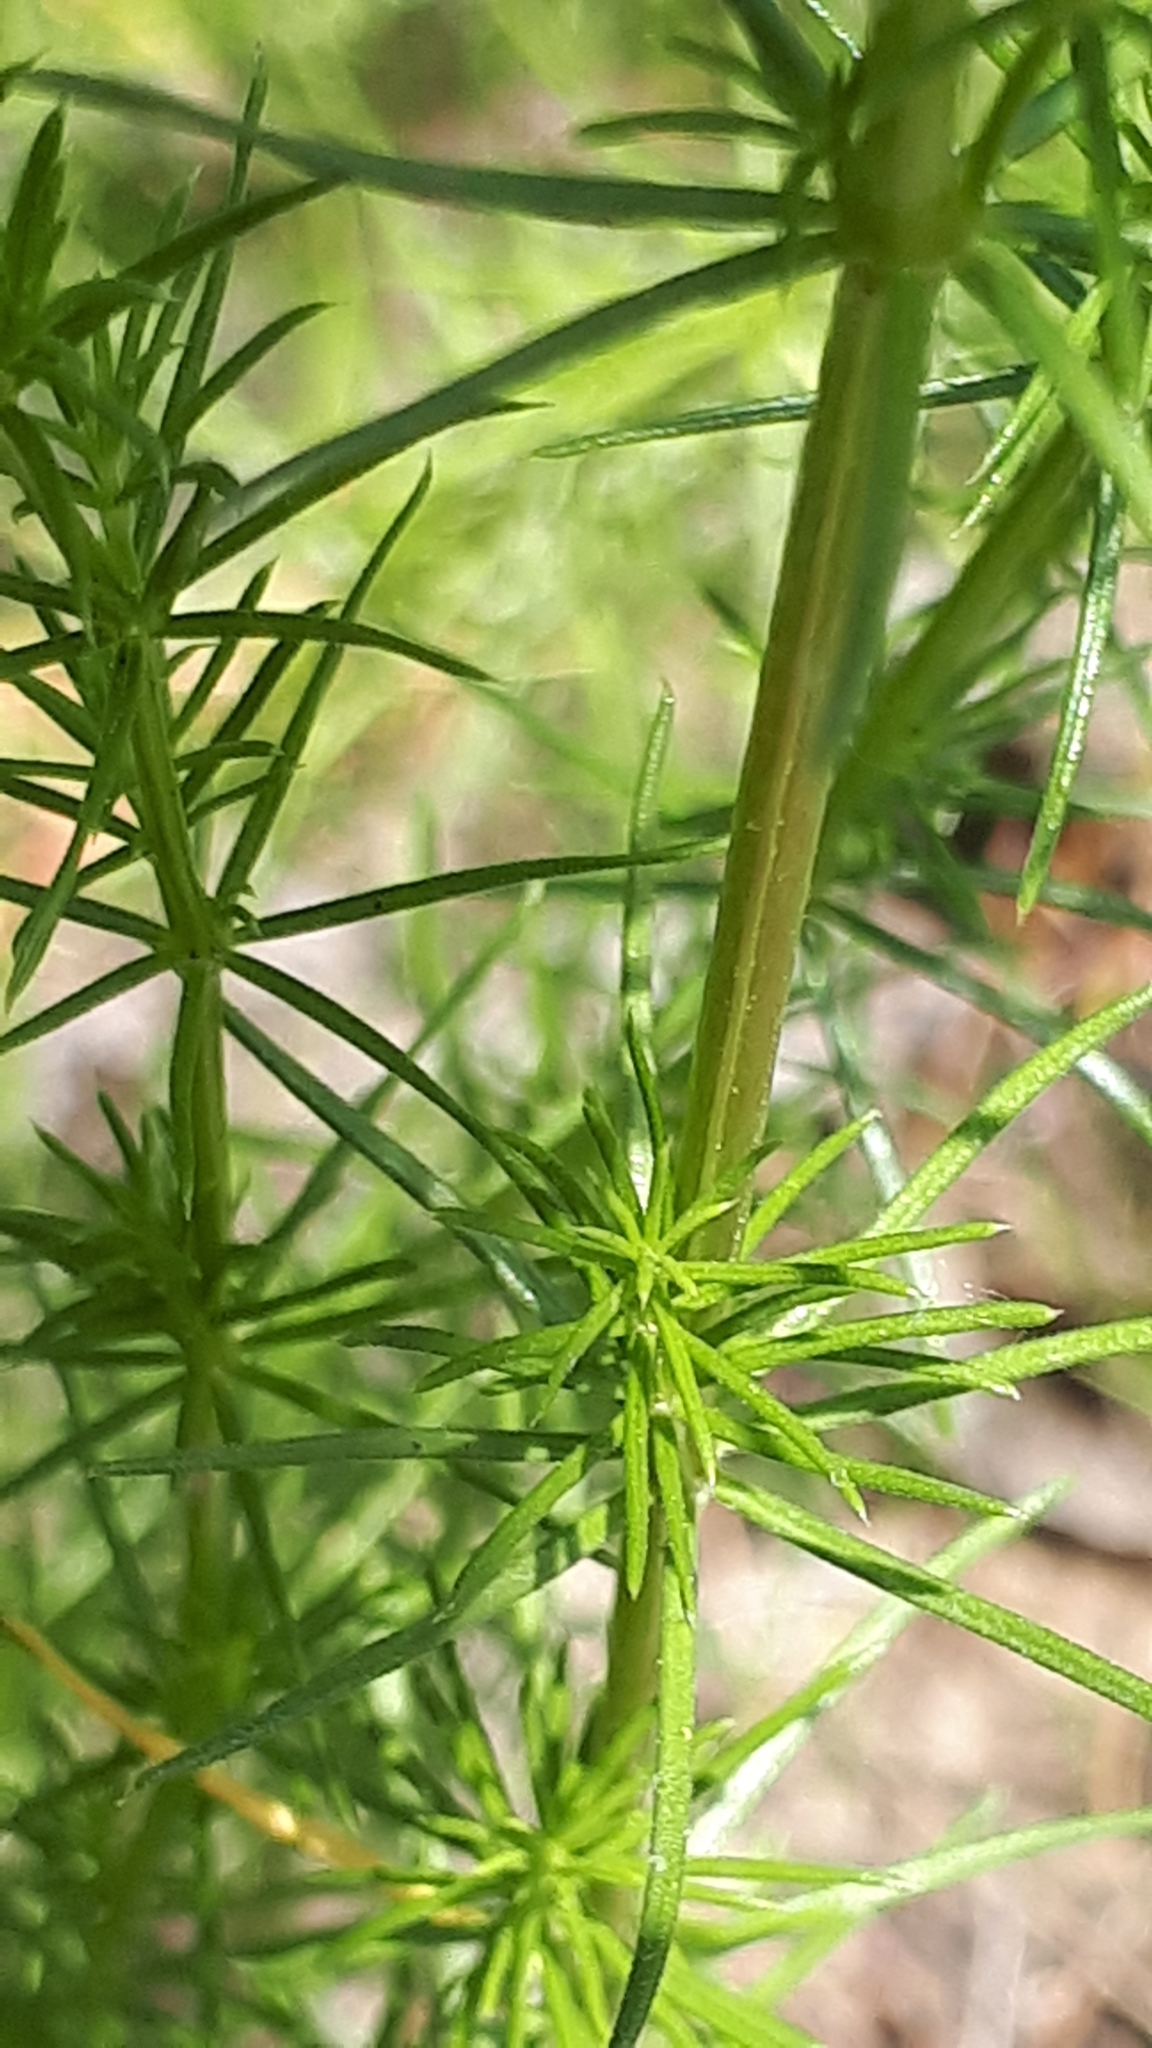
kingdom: Plantae
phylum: Tracheophyta
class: Magnoliopsida
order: Gentianales
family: Rubiaceae
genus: Galium
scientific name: Galium verum
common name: Lady's bedstraw
